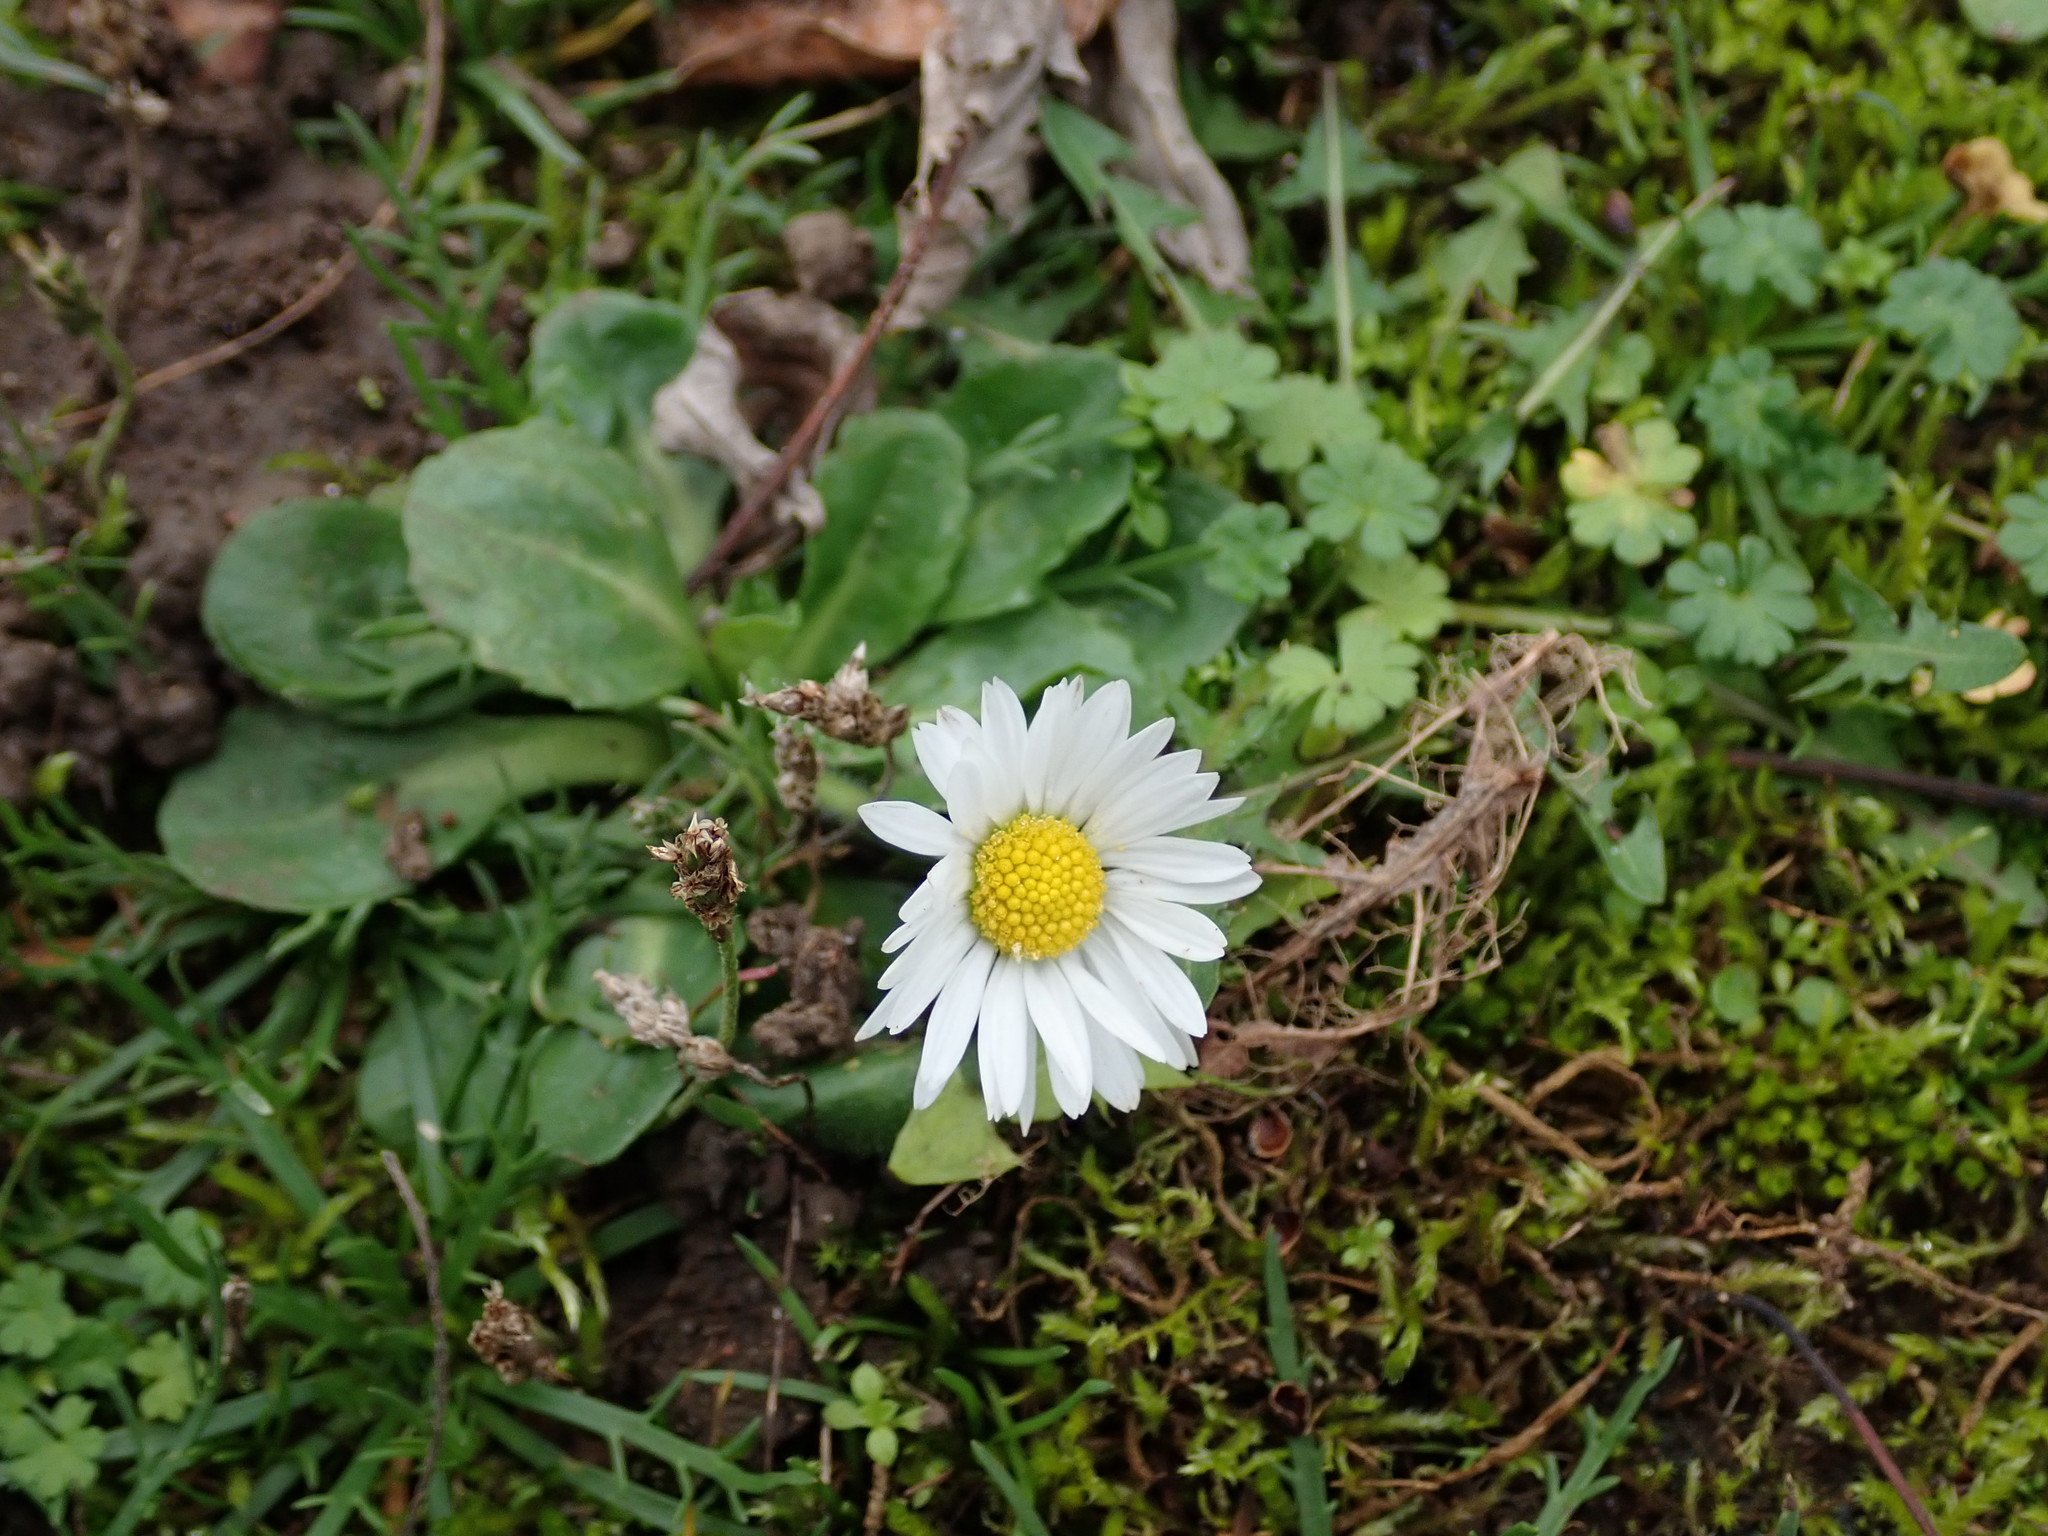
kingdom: Plantae
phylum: Tracheophyta
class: Magnoliopsida
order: Asterales
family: Asteraceae
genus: Bellis
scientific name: Bellis perennis
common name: Lawndaisy
